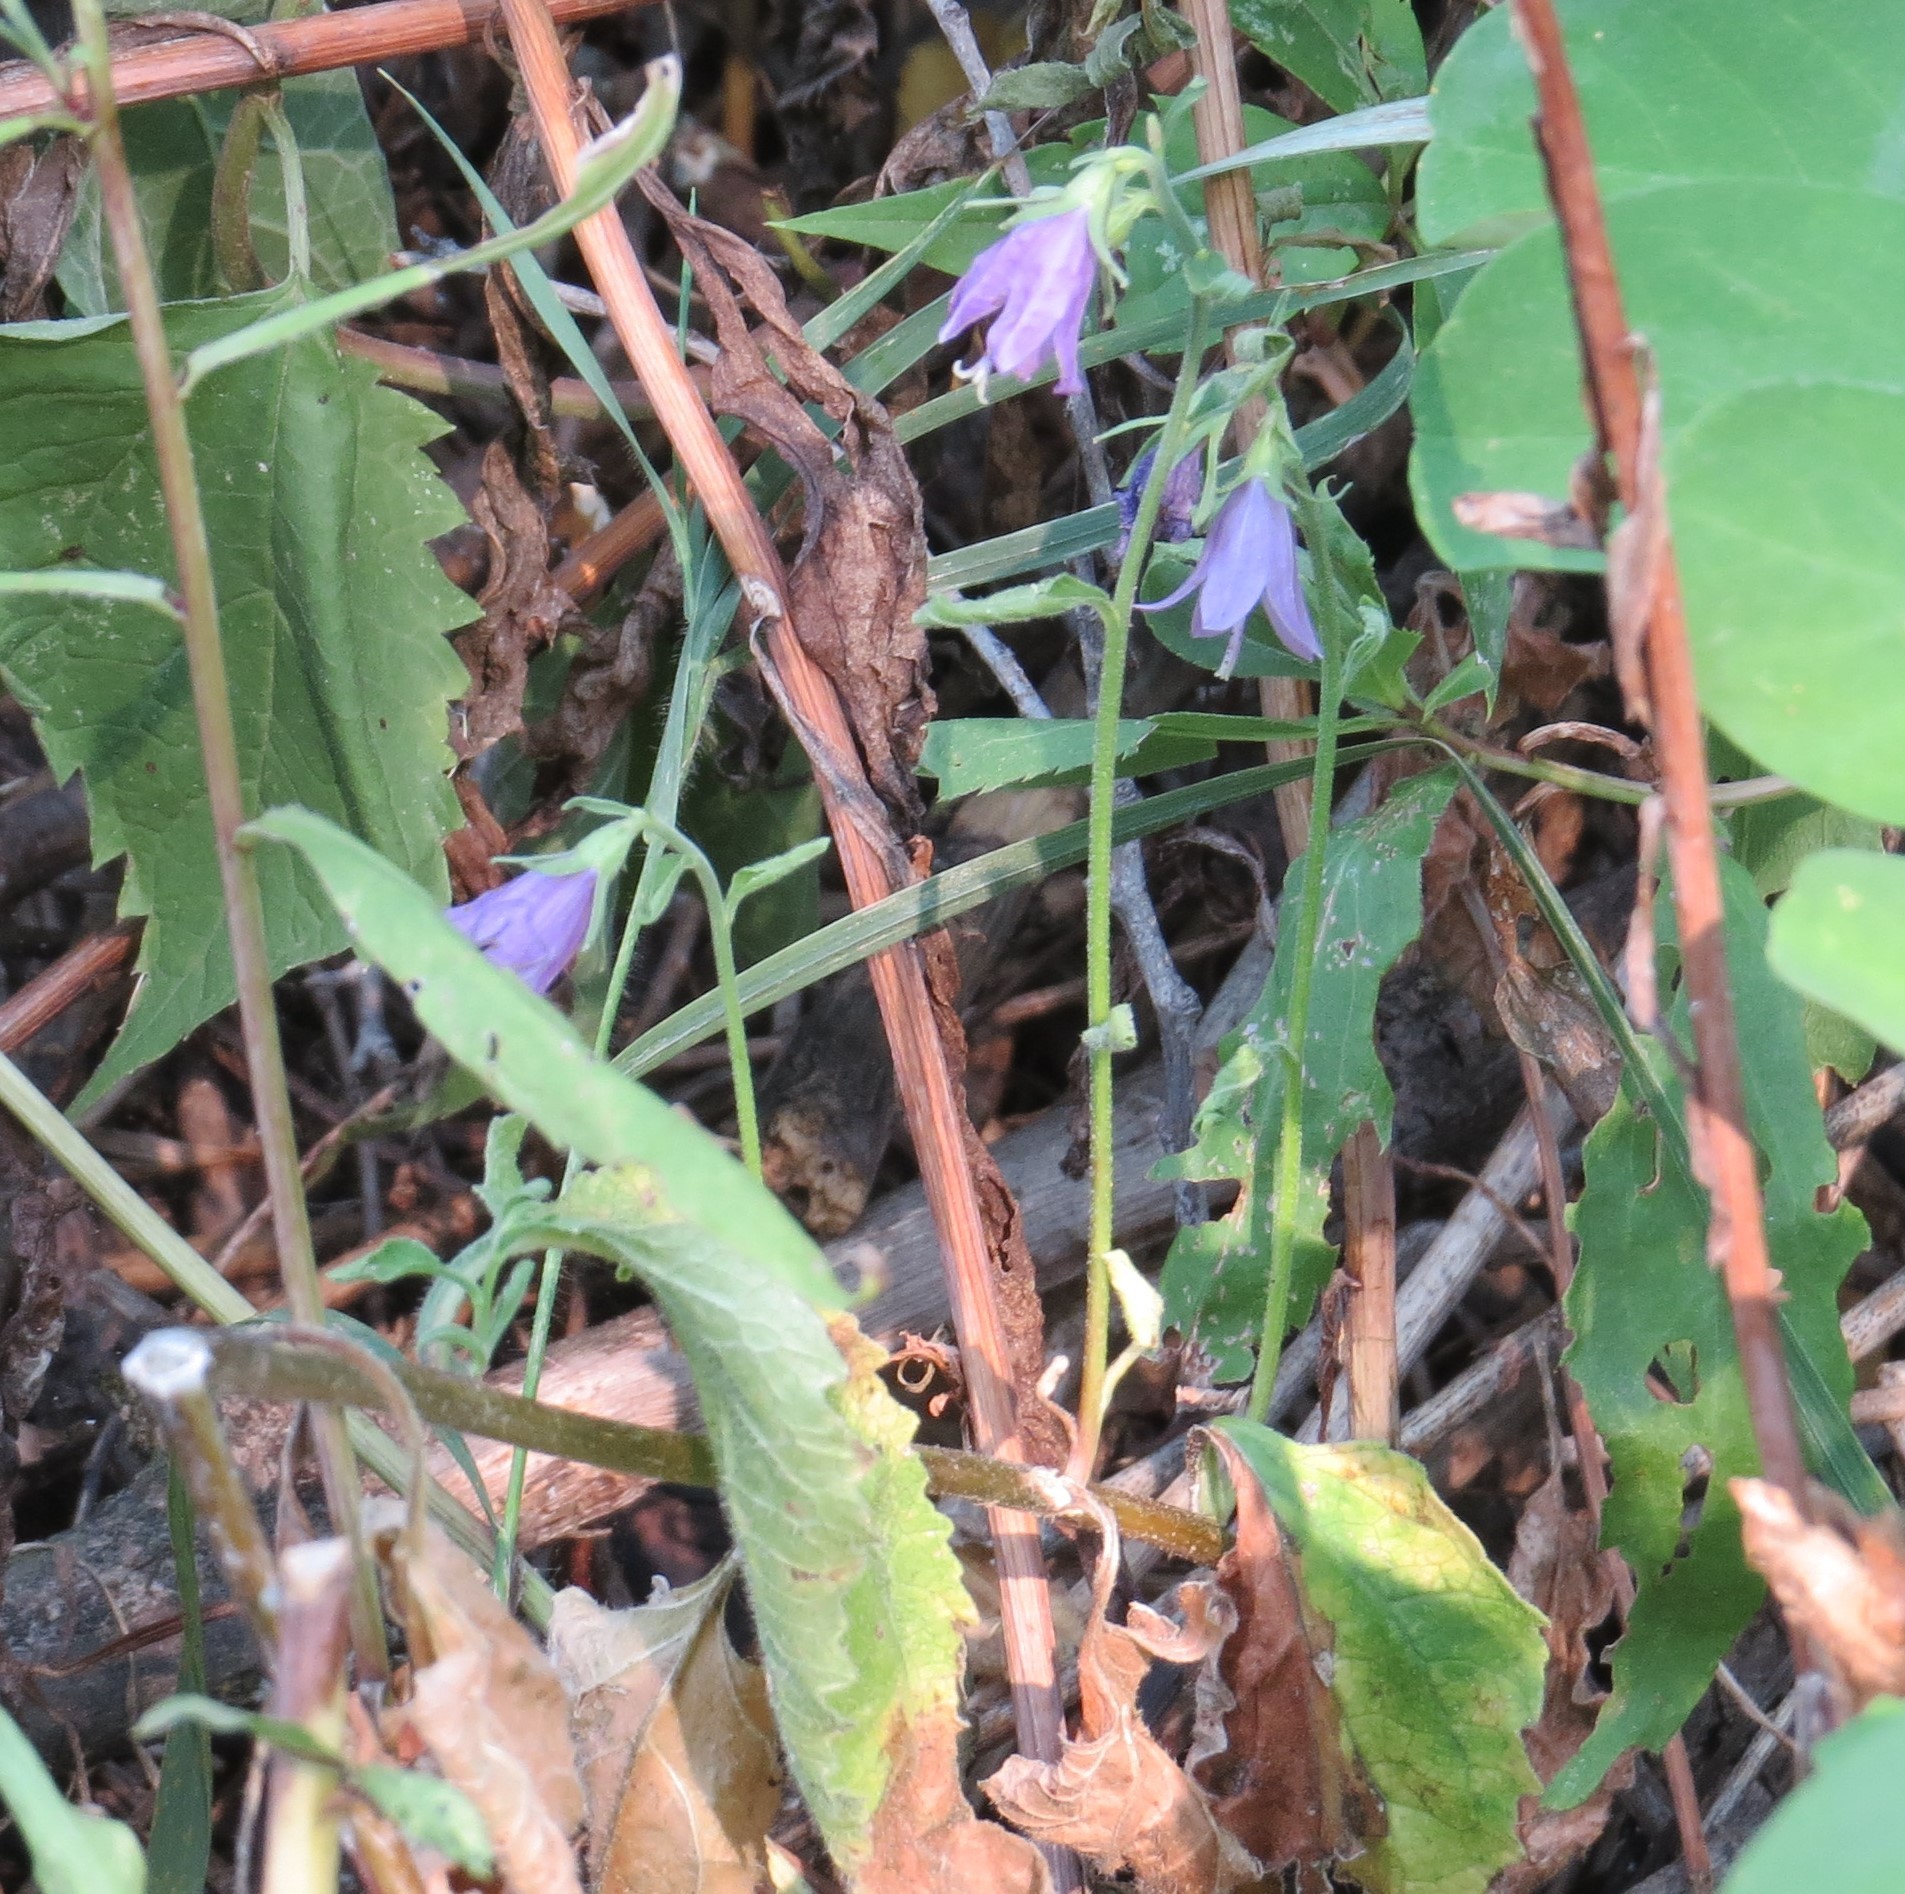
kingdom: Plantae
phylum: Tracheophyta
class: Magnoliopsida
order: Asterales
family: Campanulaceae
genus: Campanula
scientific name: Campanula rapunculoides
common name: Creeping bellflower
